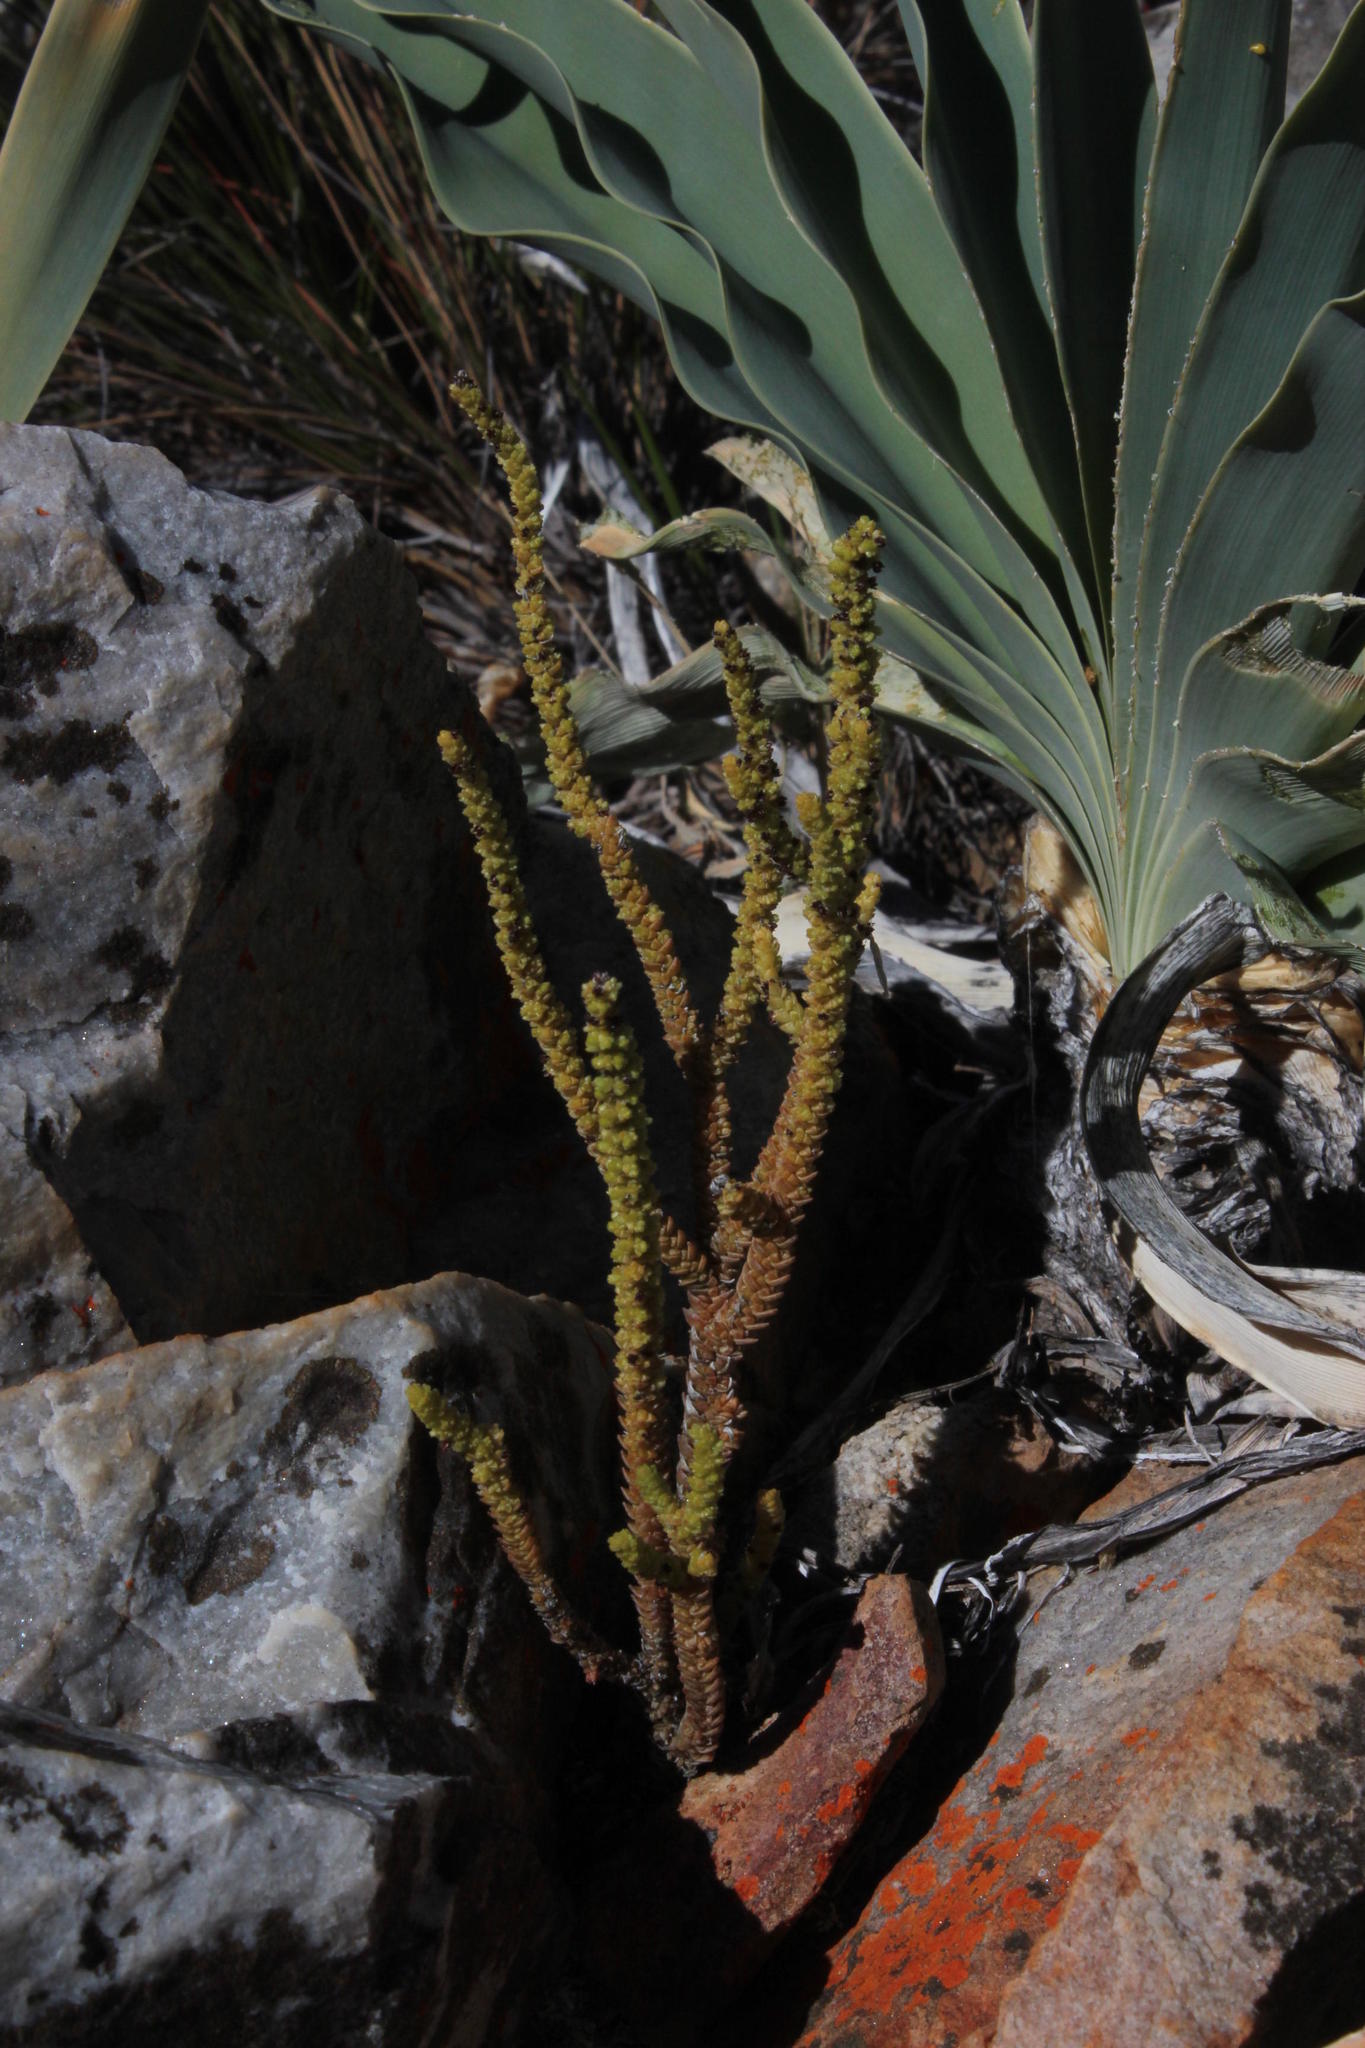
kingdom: Plantae
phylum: Tracheophyta
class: Magnoliopsida
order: Saxifragales
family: Crassulaceae
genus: Crassula
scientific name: Crassula muscosa
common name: Toy-cypress
